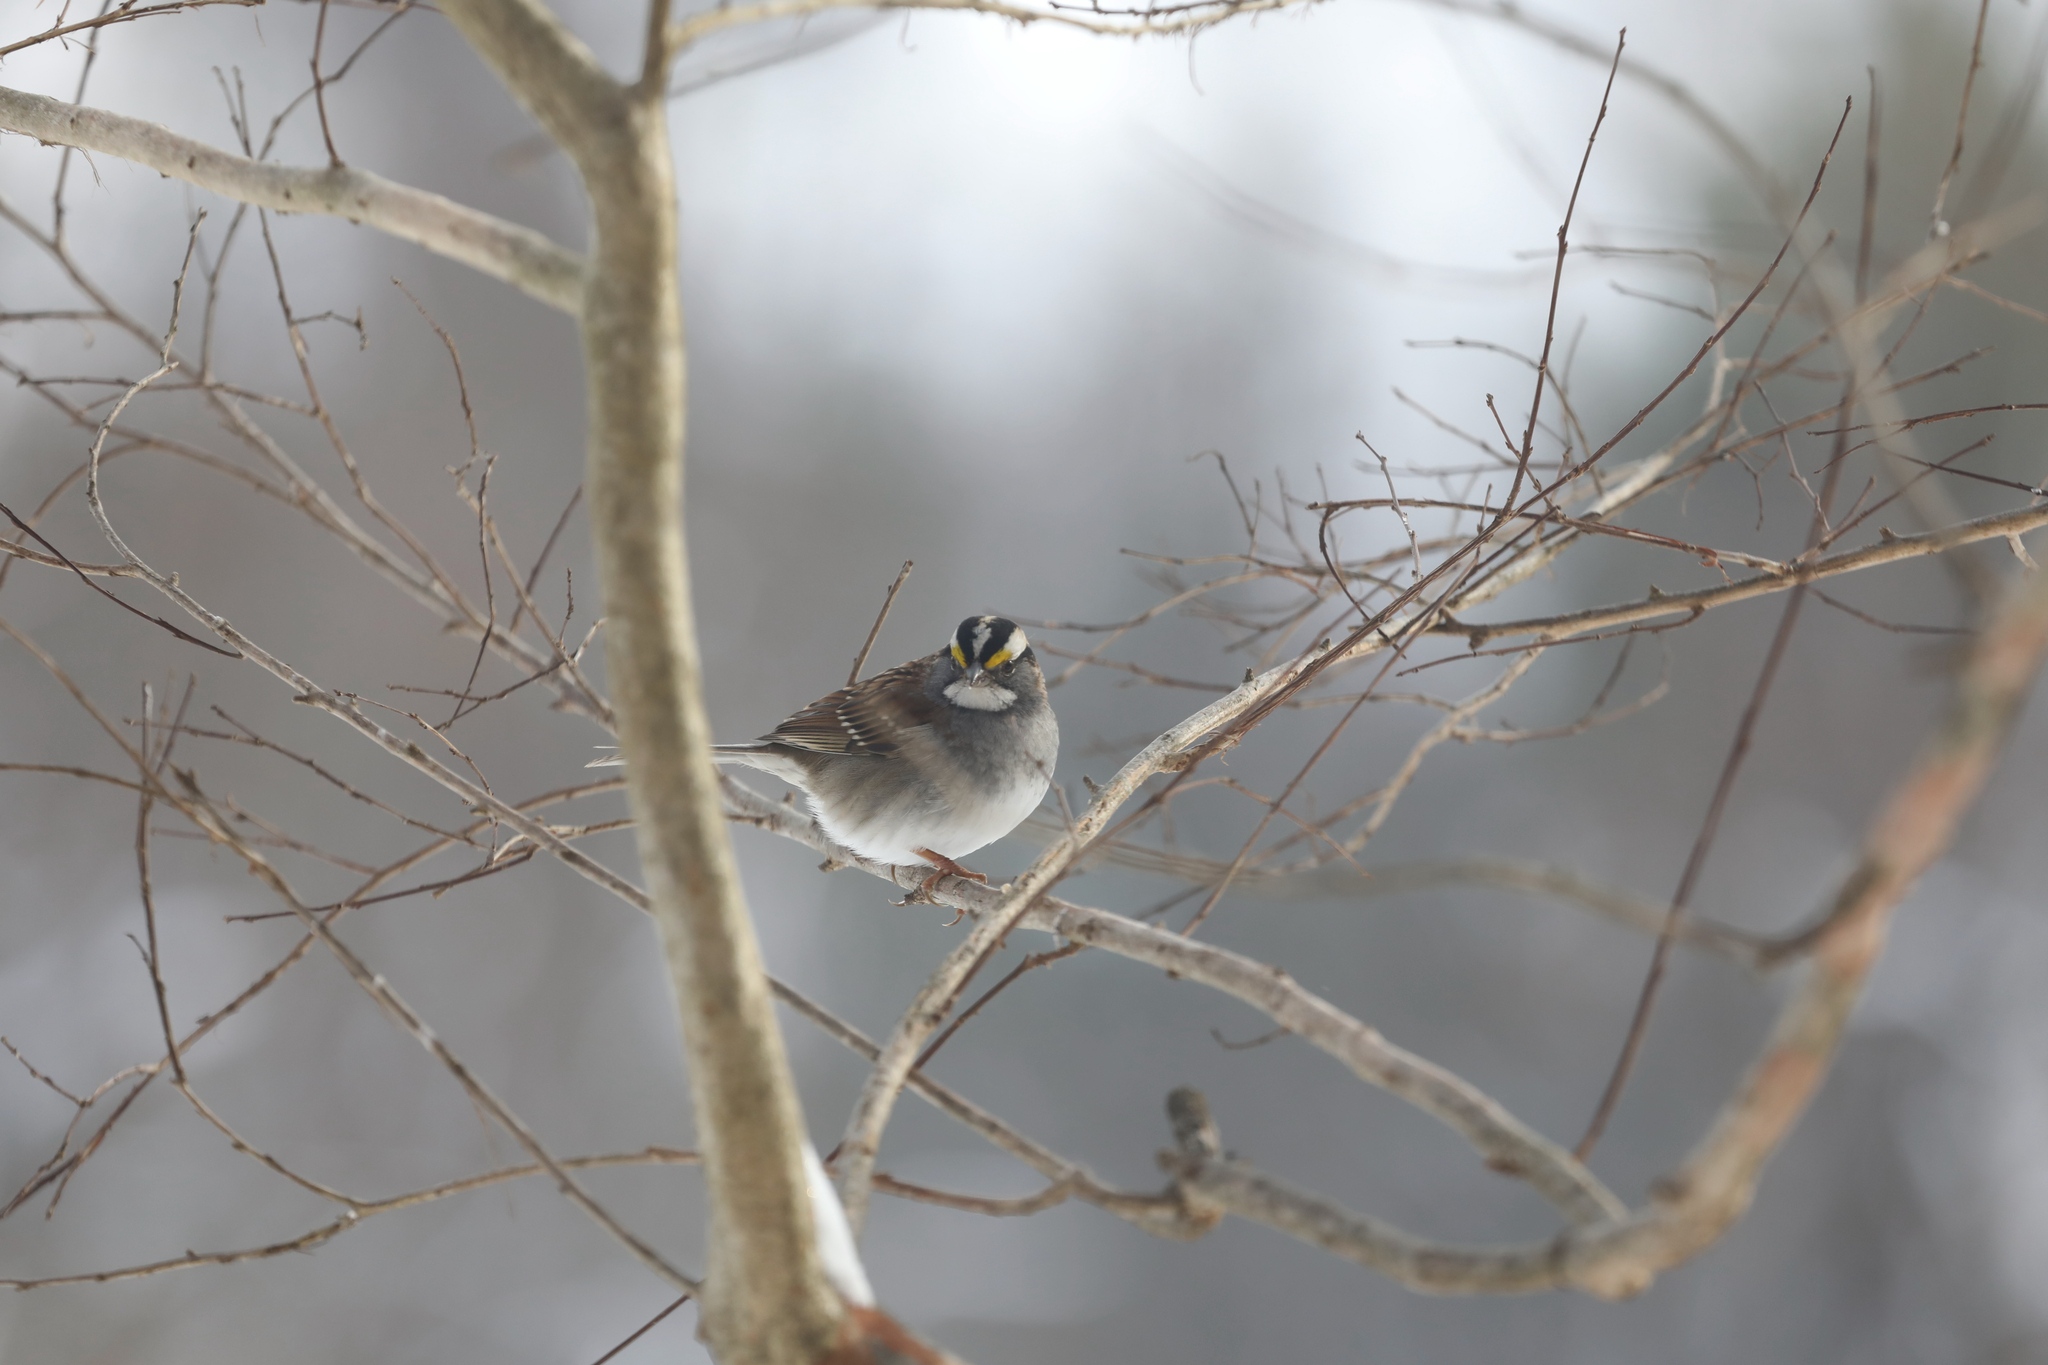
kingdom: Animalia
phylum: Chordata
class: Aves
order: Passeriformes
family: Passerellidae
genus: Zonotrichia
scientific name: Zonotrichia albicollis
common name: White-throated sparrow
